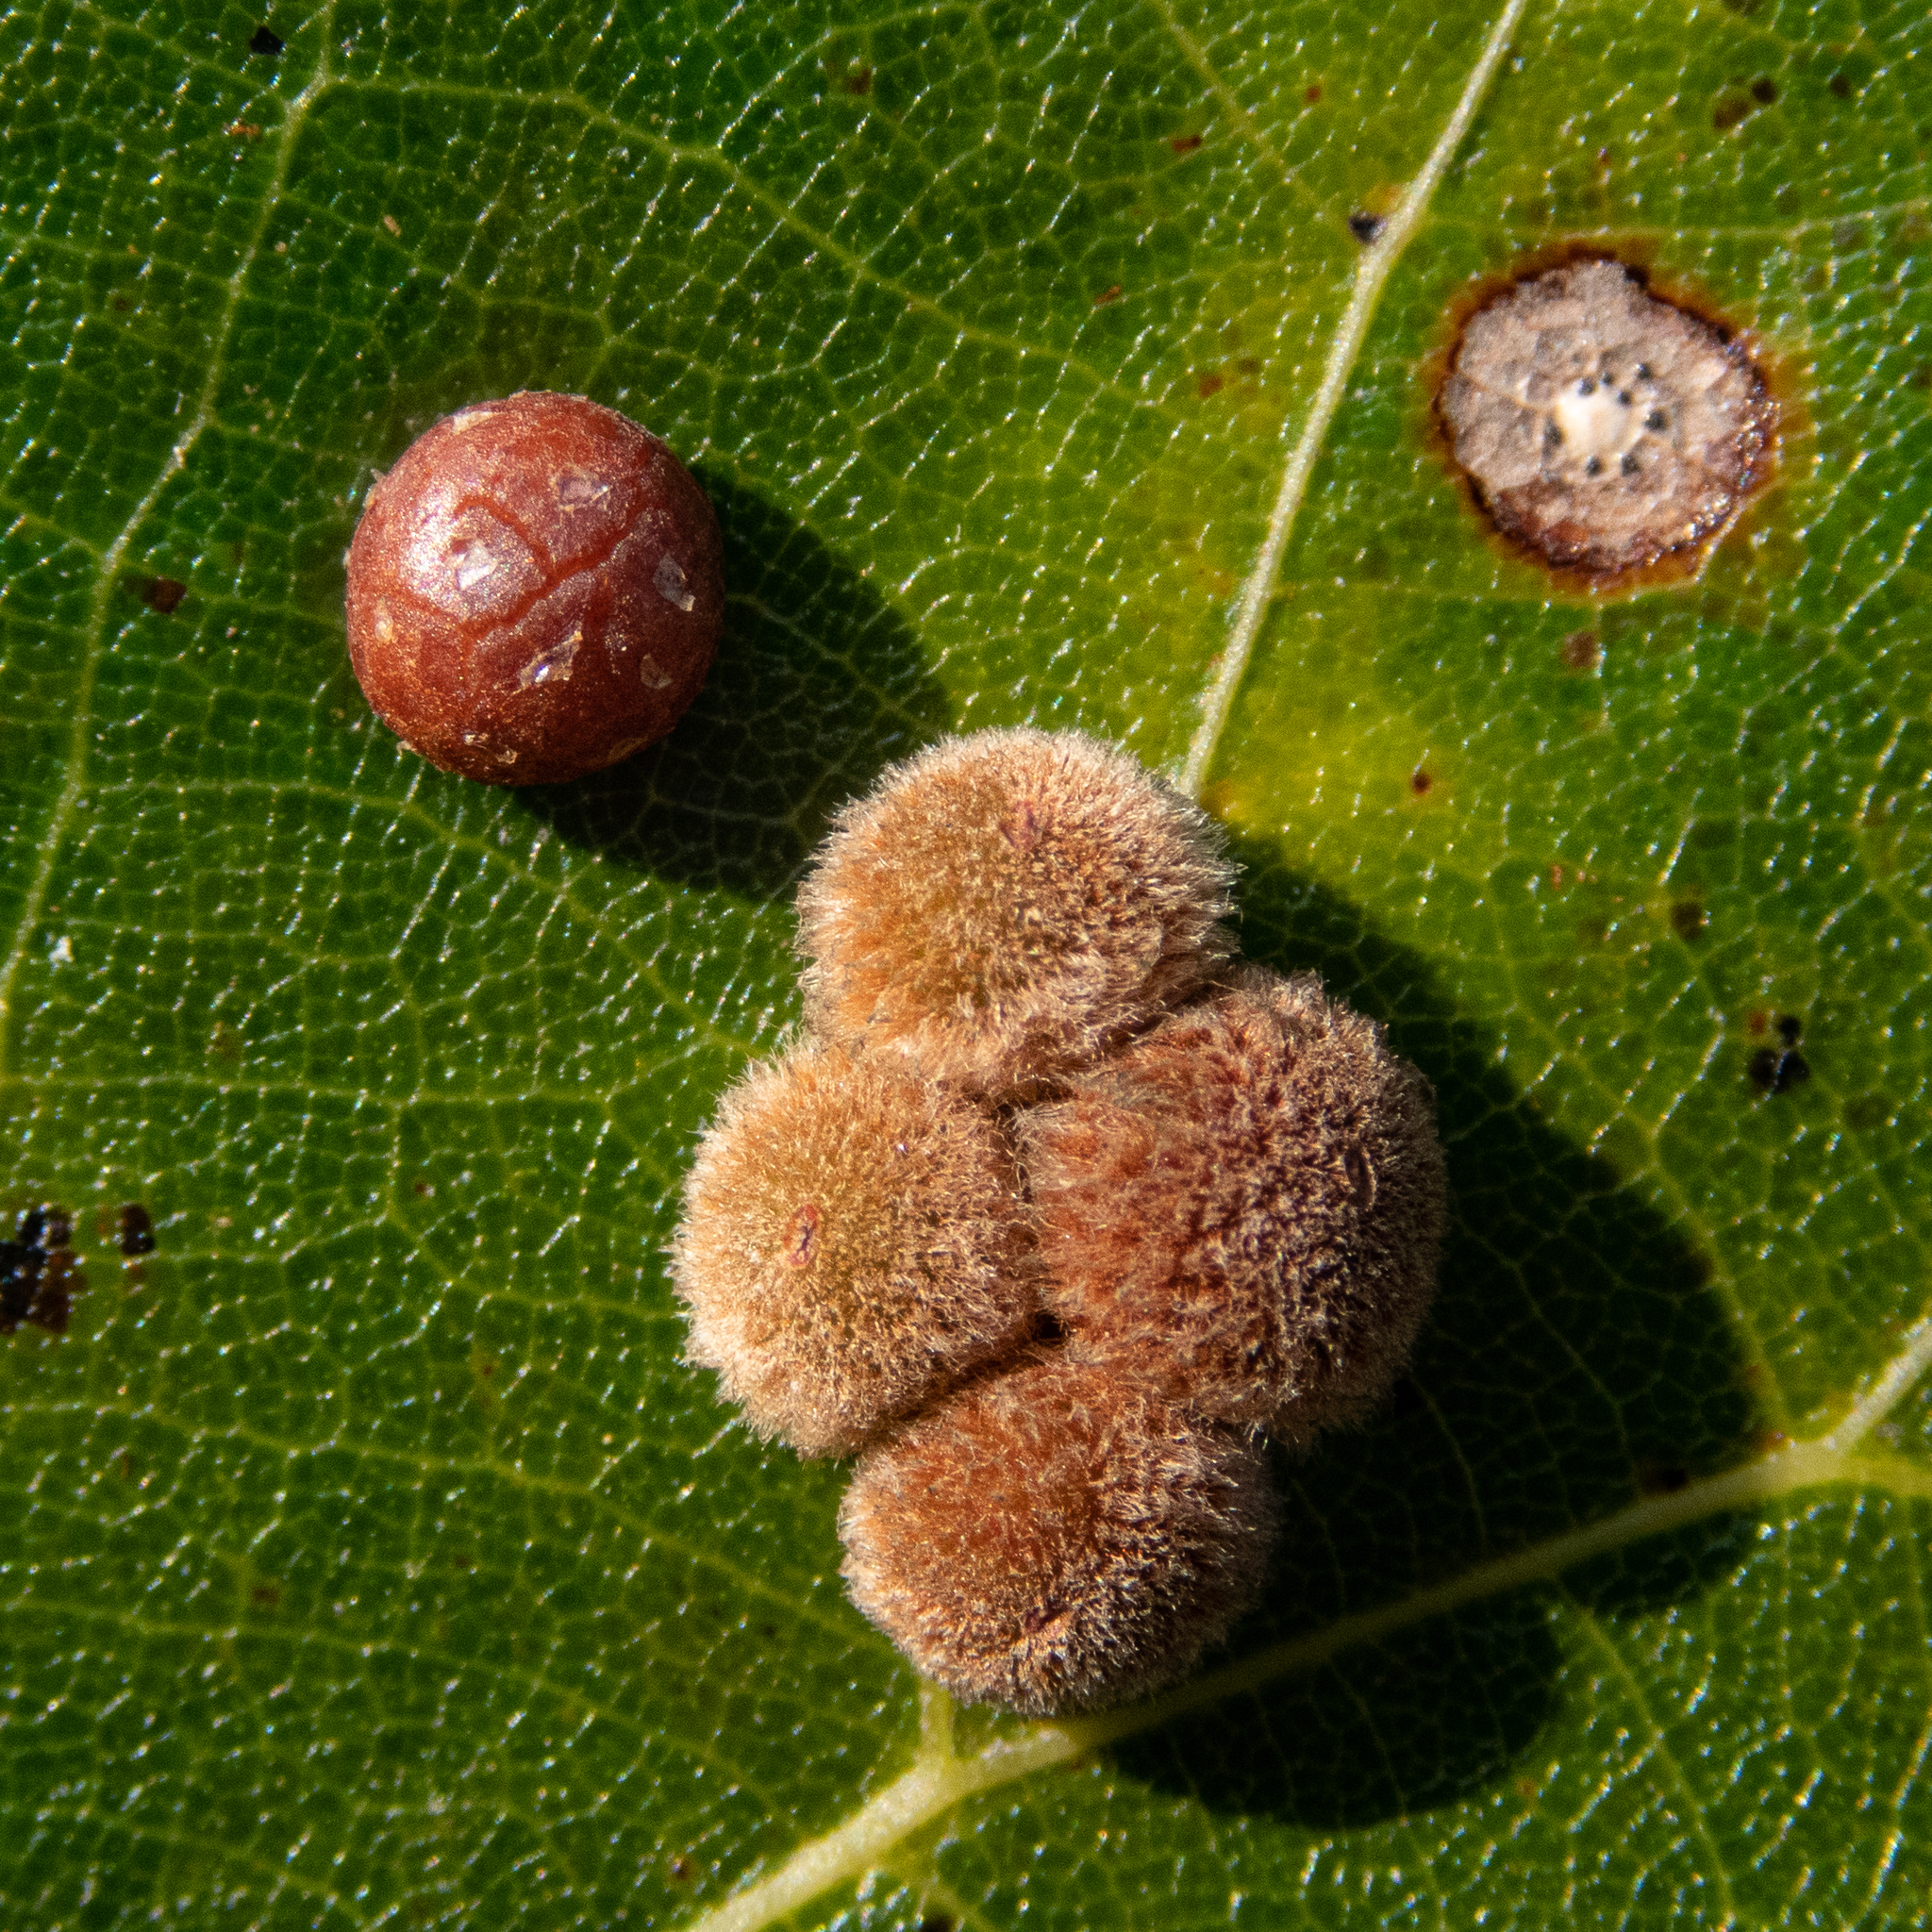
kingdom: Animalia
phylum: Arthropoda
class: Insecta
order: Hymenoptera
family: Cynipidae
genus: Callirhytis
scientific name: Callirhytis
